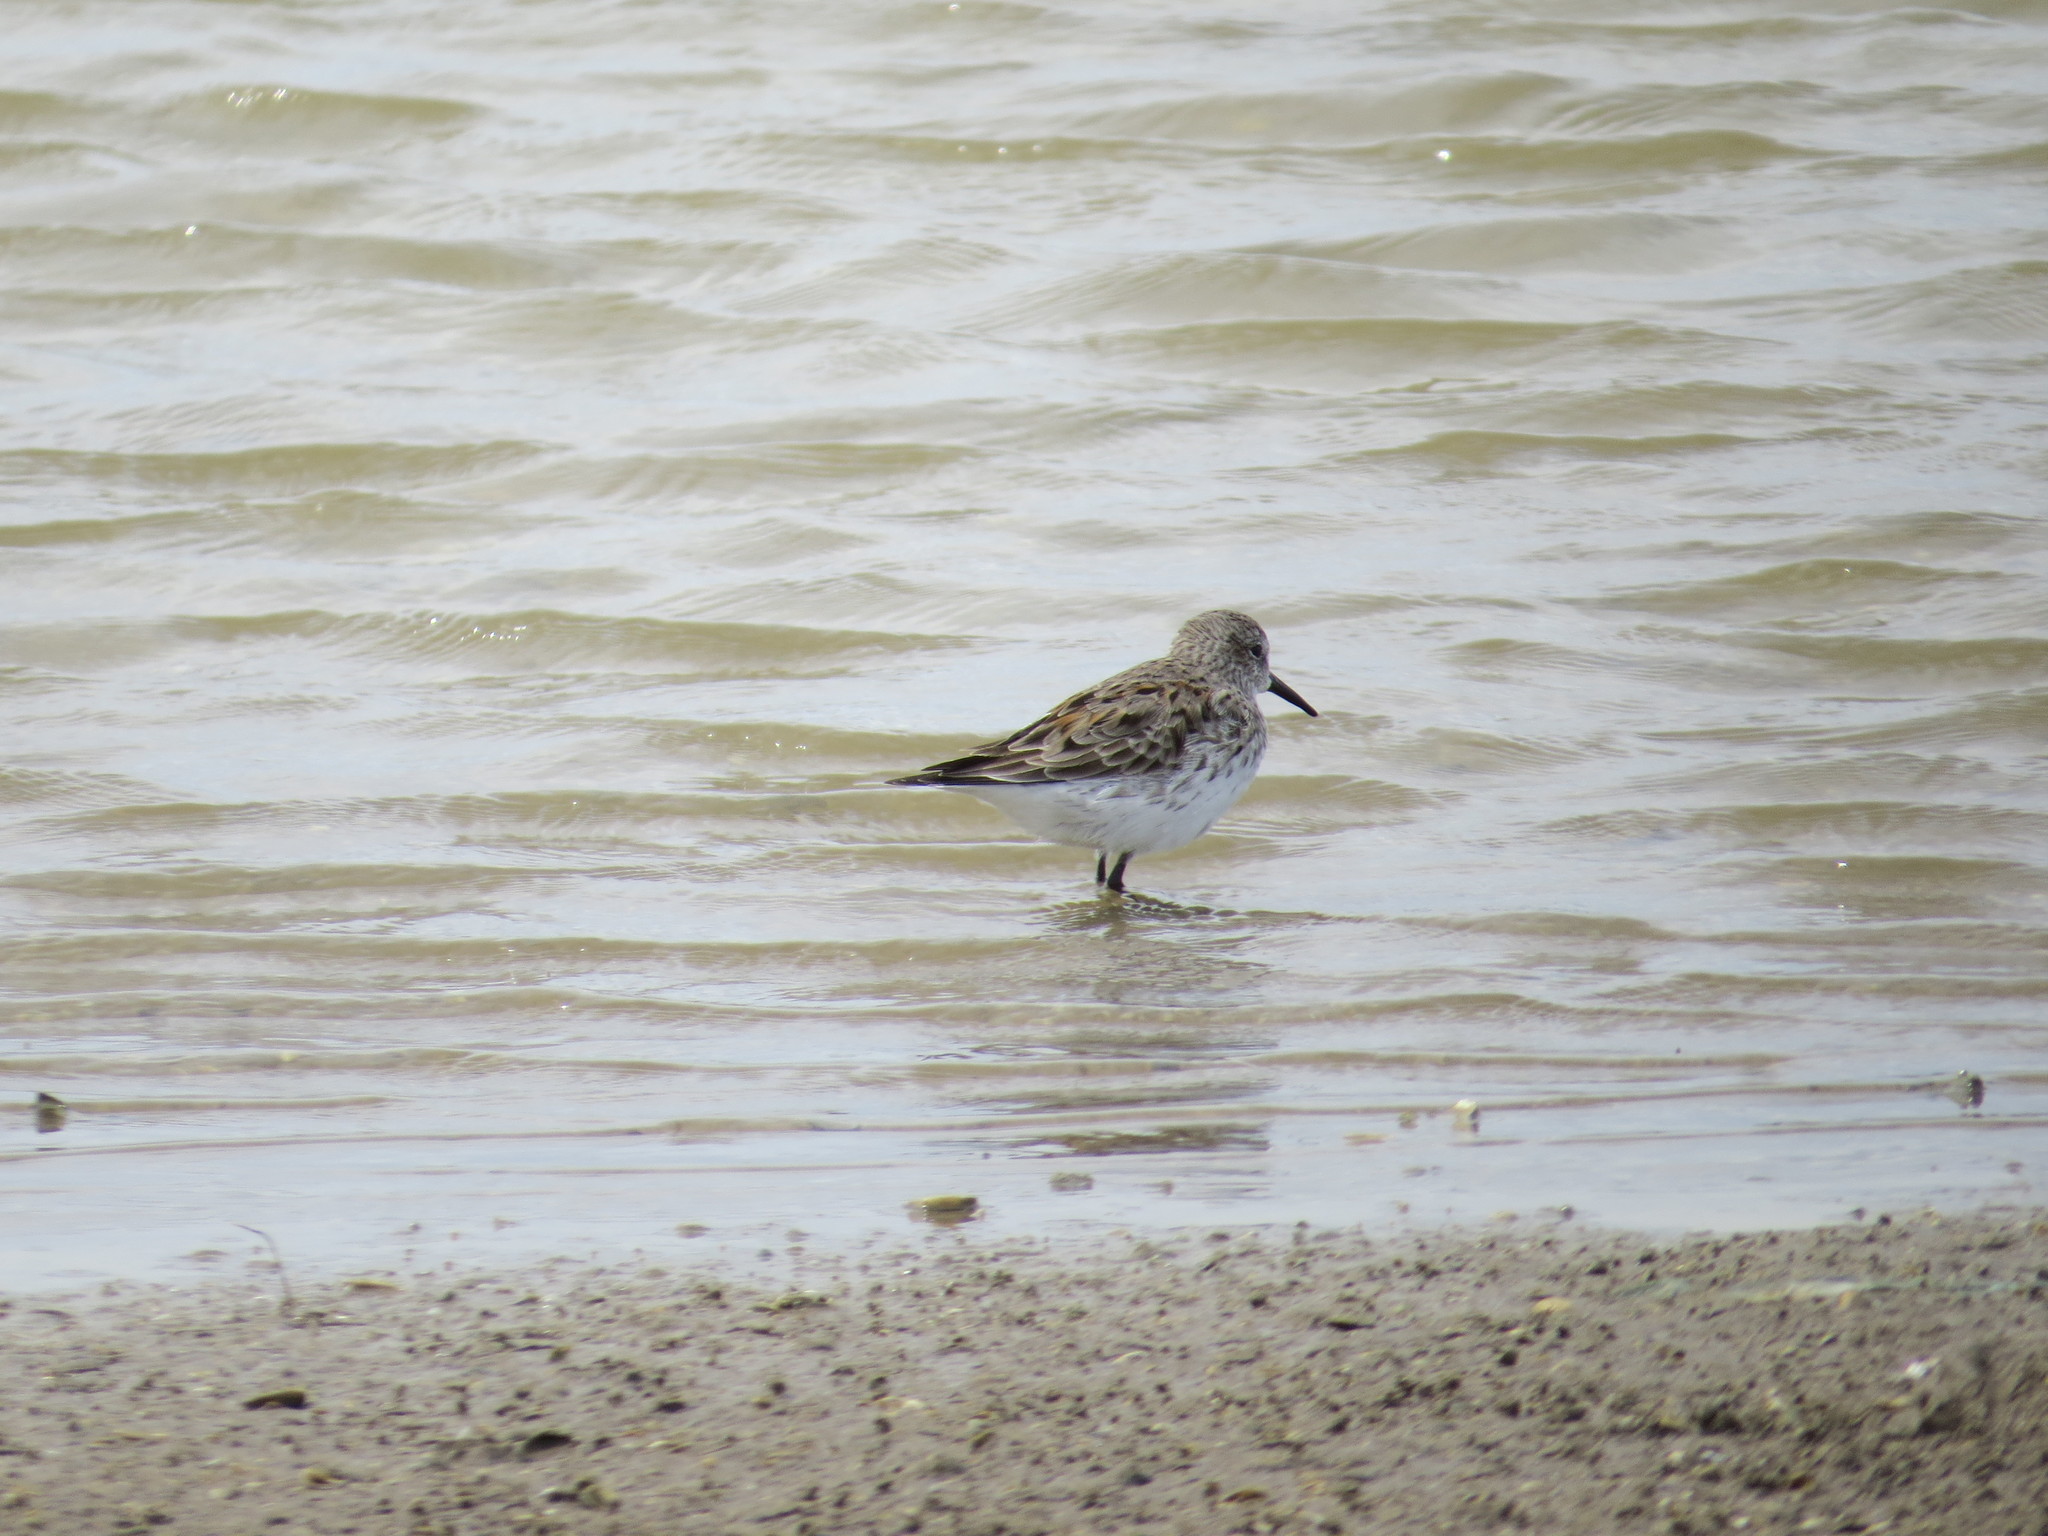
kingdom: Animalia
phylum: Chordata
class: Aves
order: Charadriiformes
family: Scolopacidae
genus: Calidris
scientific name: Calidris fuscicollis
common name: White-rumped sandpiper
